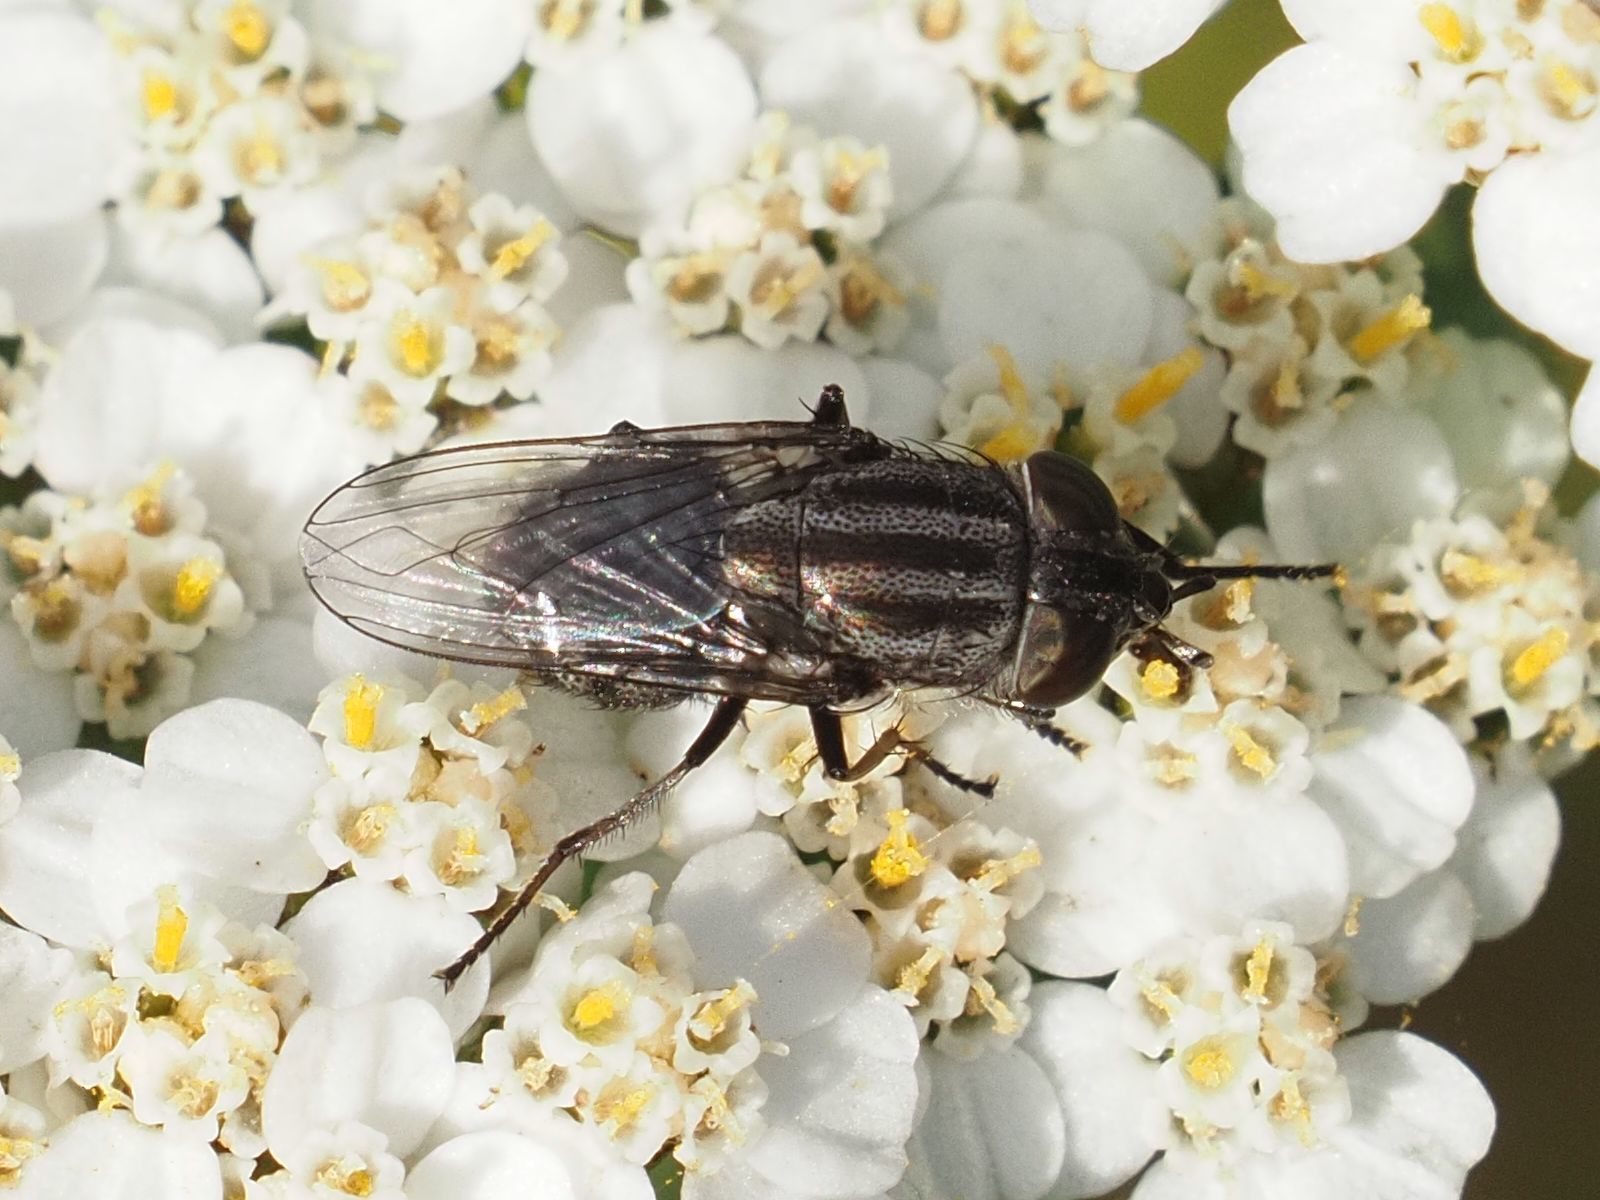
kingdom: Animalia
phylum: Arthropoda
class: Insecta
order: Diptera
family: Calliphoridae
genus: Stomorhina
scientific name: Stomorhina lunata
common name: Locust blowfly
